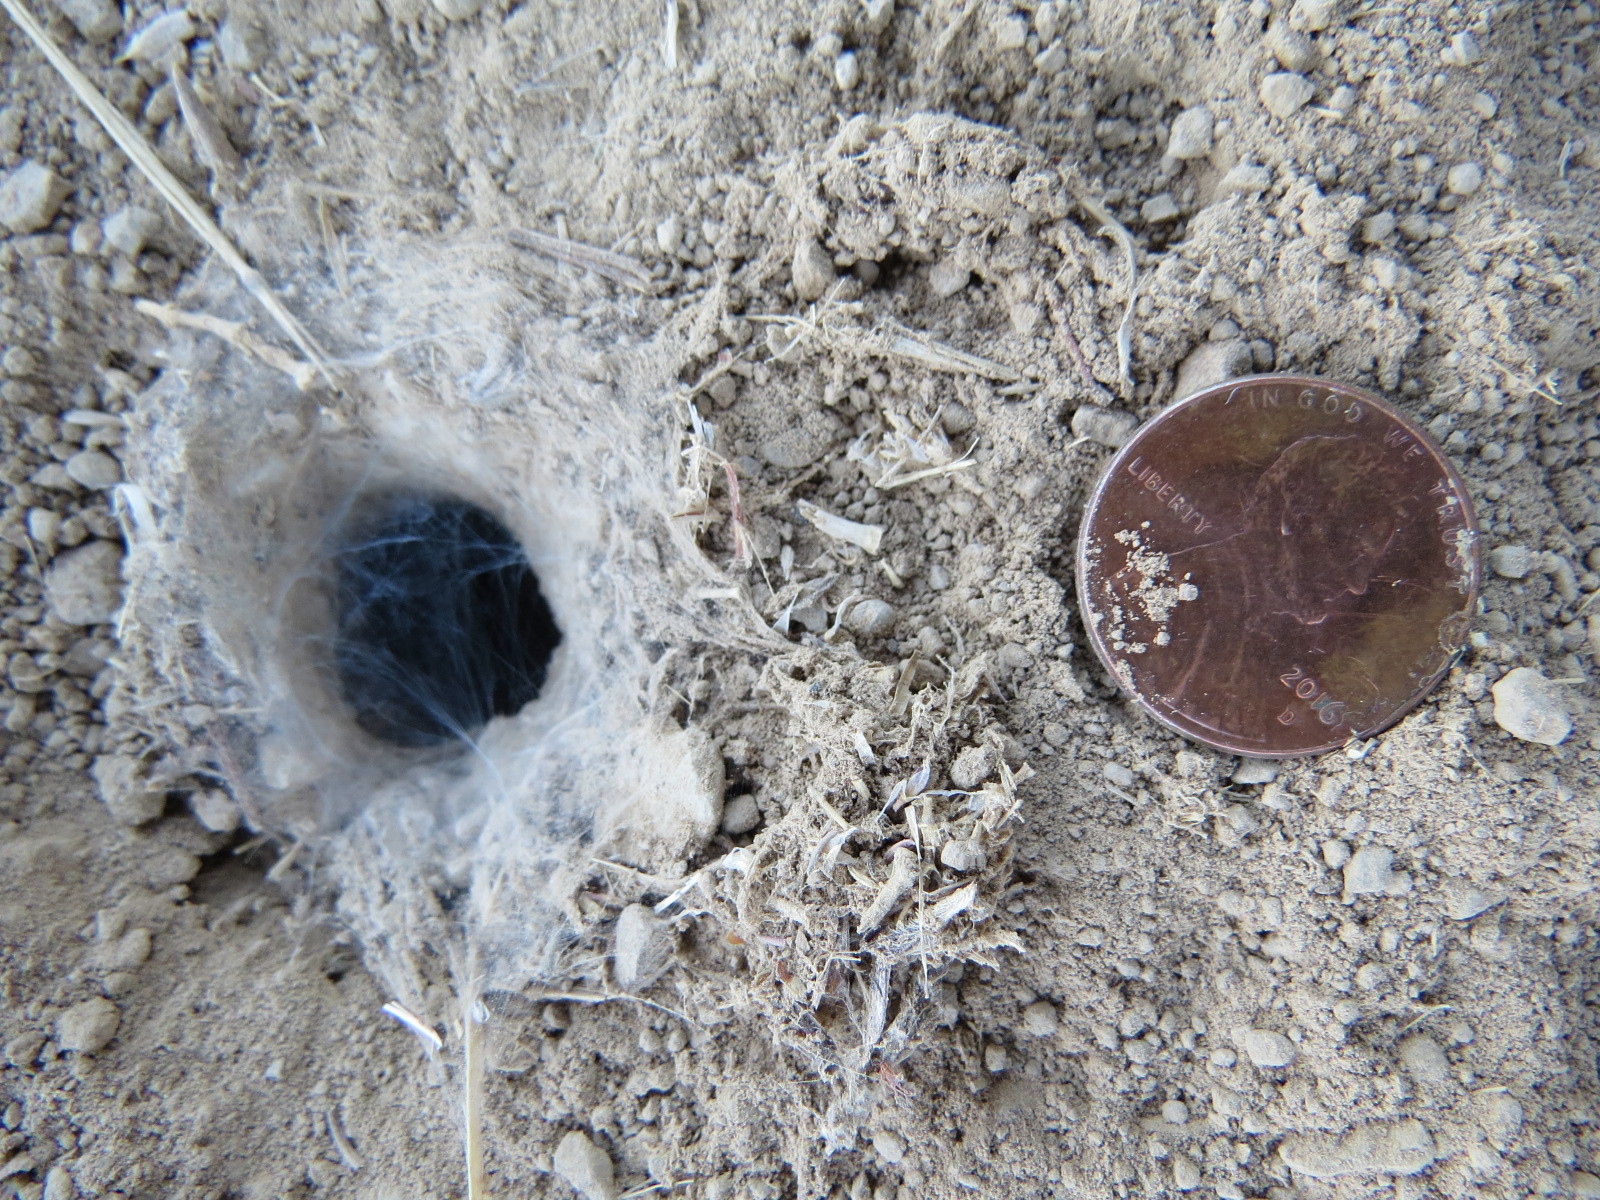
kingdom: Animalia
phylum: Arthropoda
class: Arachnida
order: Araneae
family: Nemesiidae
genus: Calisoga
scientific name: Calisoga longitarsis
